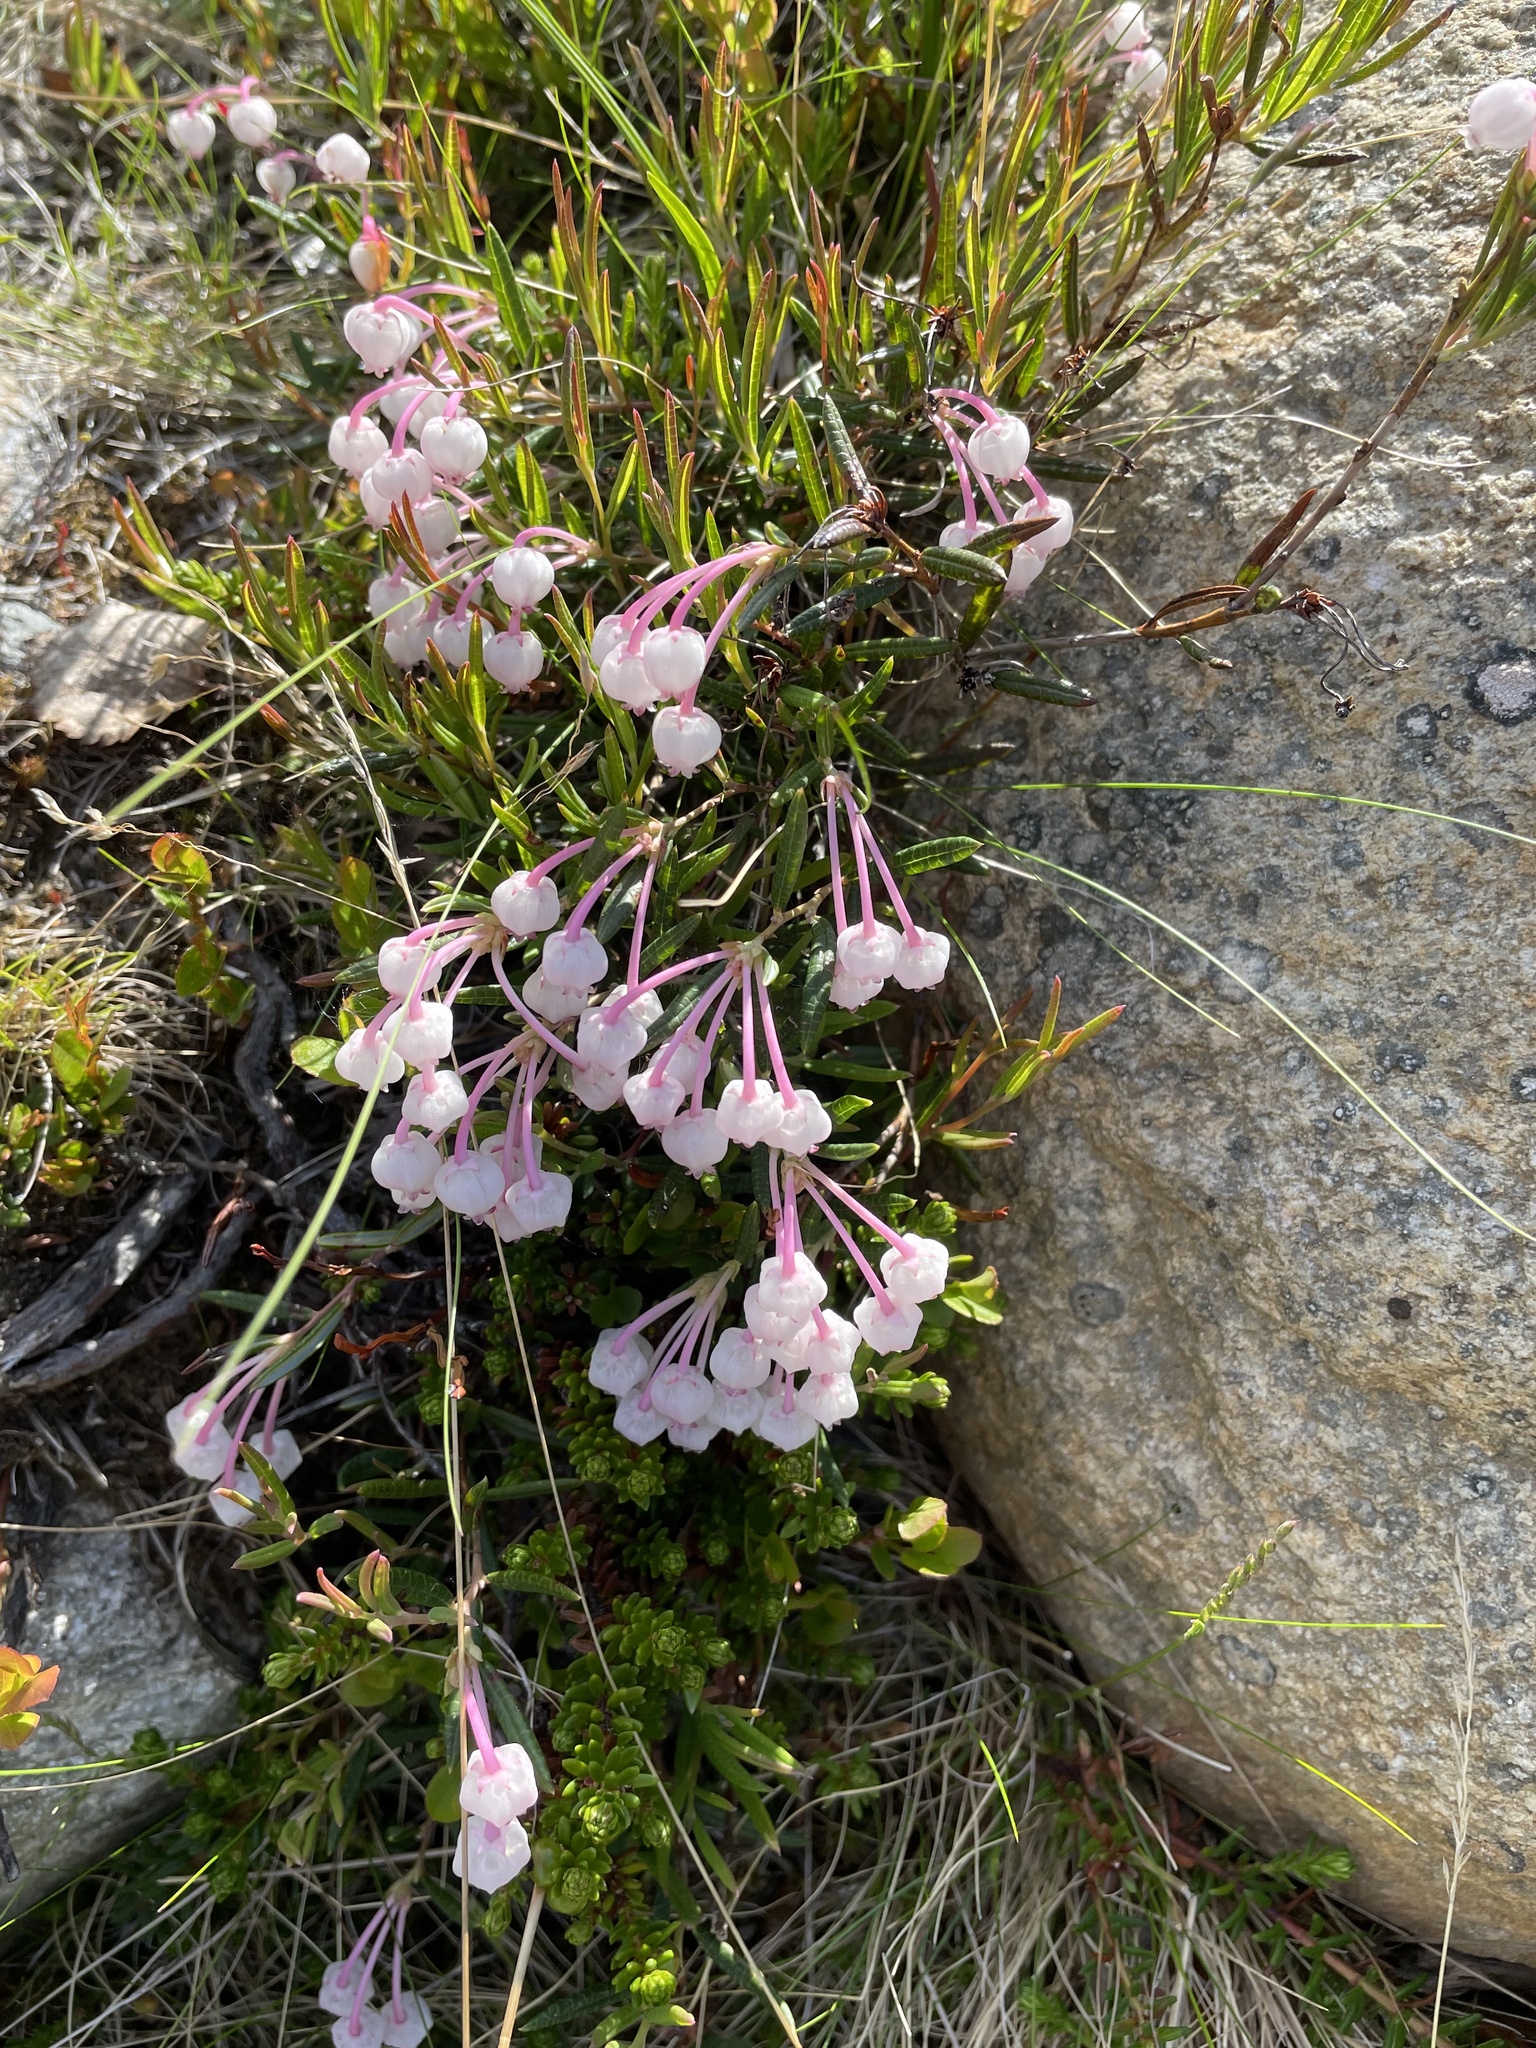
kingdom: Plantae
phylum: Tracheophyta
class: Magnoliopsida
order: Ericales
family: Ericaceae
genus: Andromeda
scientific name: Andromeda polifolia
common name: Bog-rosemary
